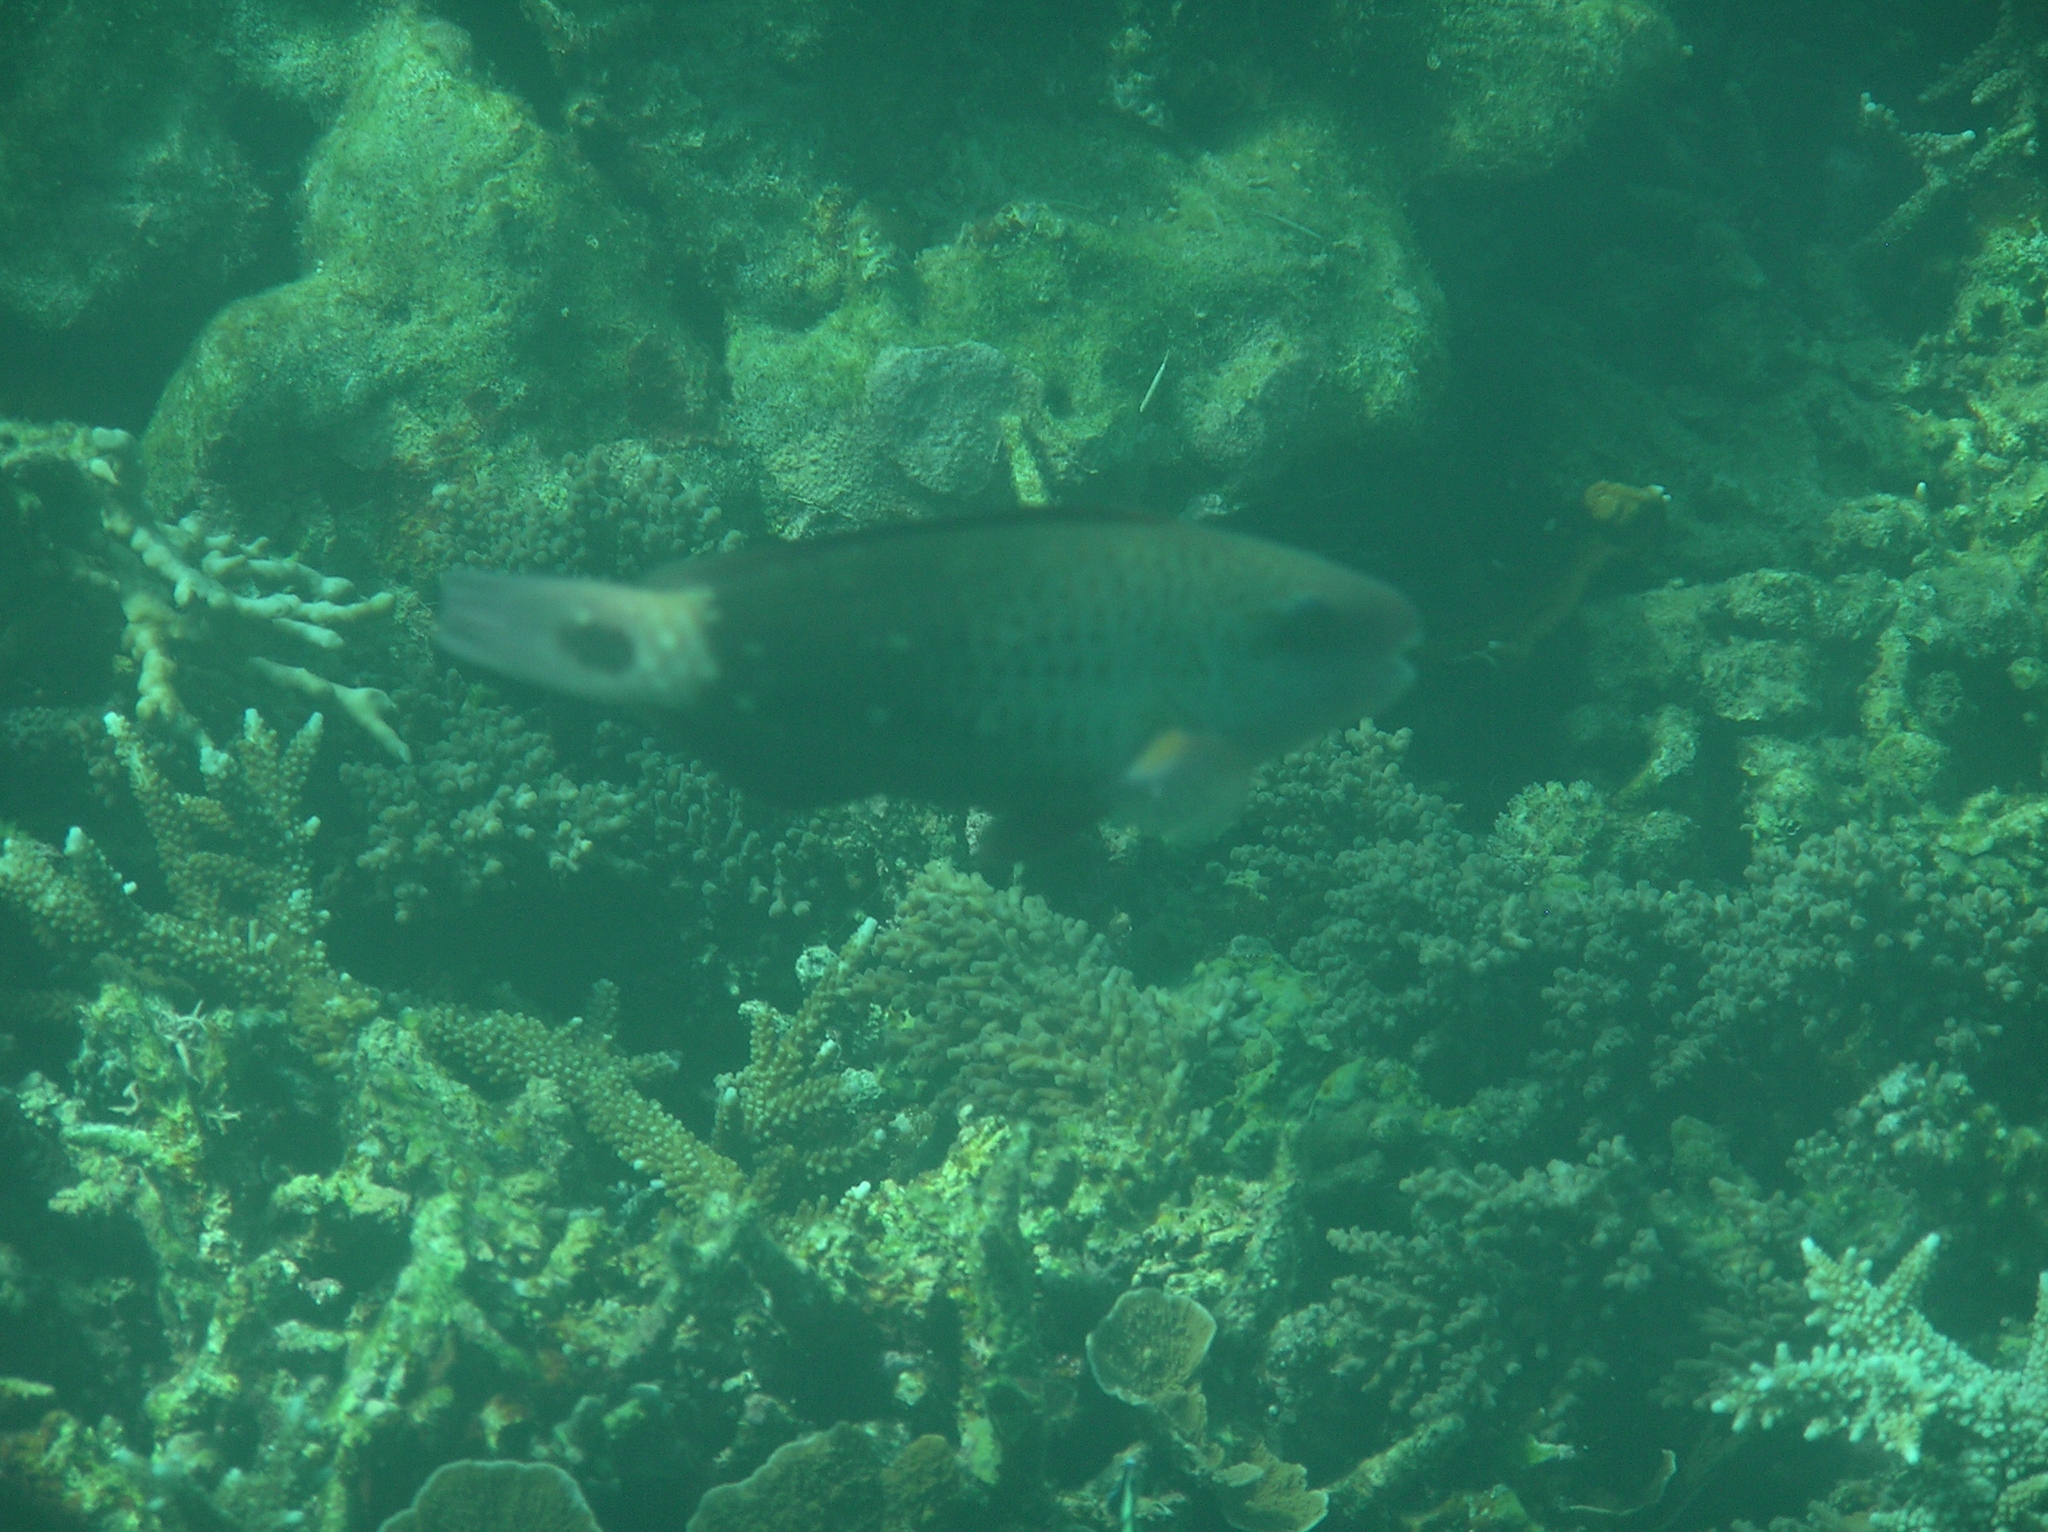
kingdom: Animalia
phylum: Chordata
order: Perciformes
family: Scaridae
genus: Chlorurus
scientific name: Chlorurus spilurus
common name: Bullethead parrotfish
